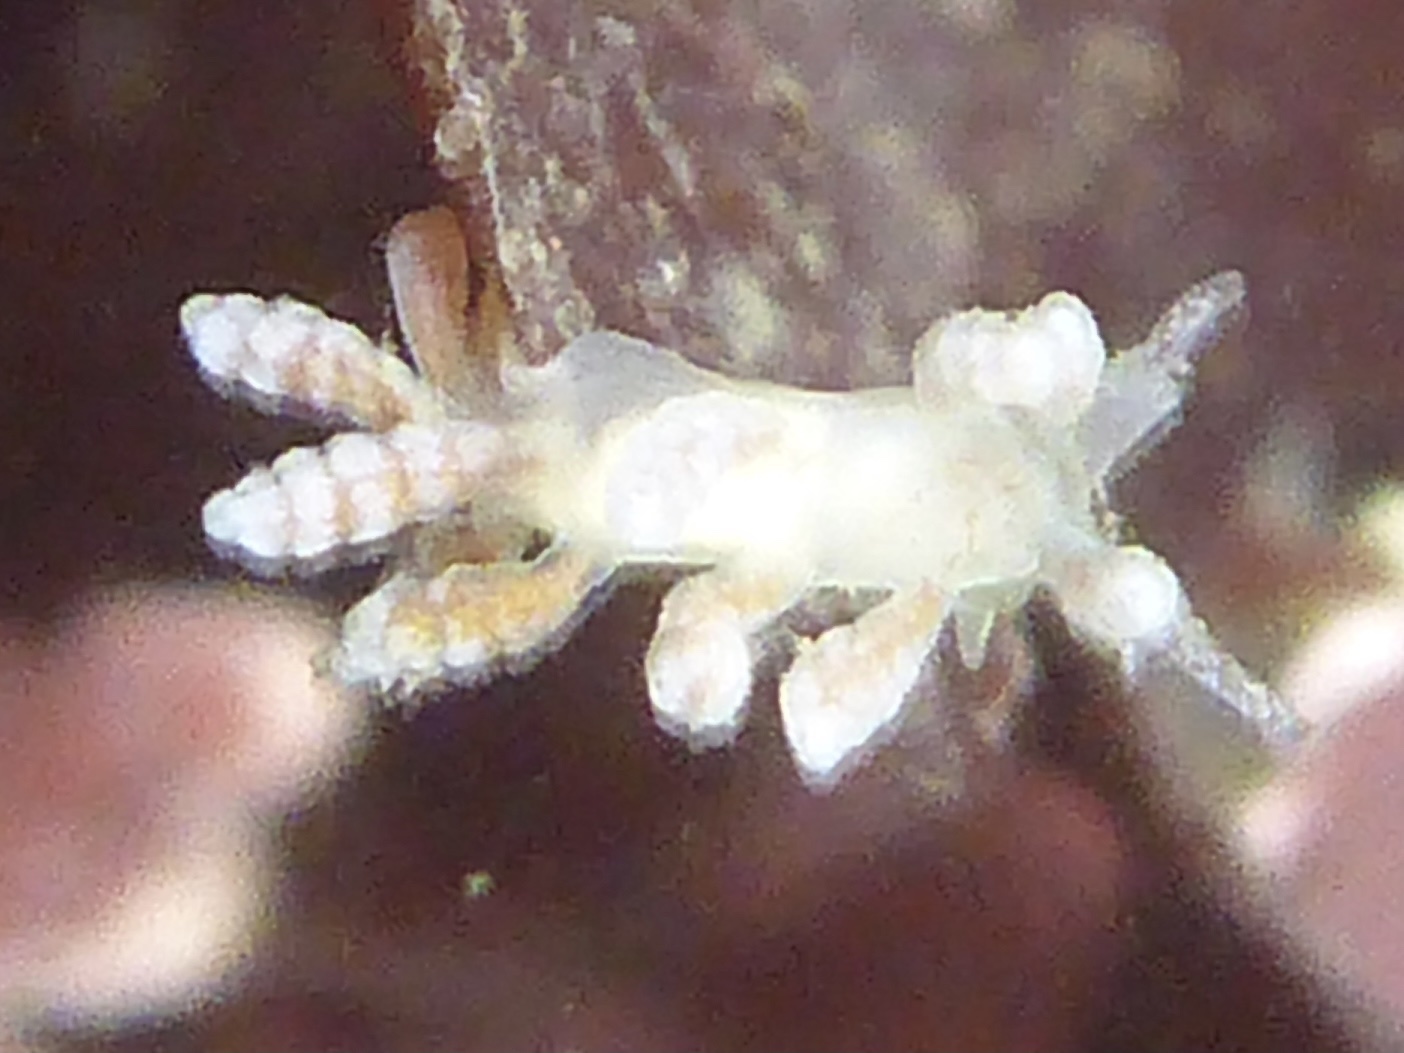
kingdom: Animalia
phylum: Mollusca
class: Gastropoda
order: Nudibranchia
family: Dotidae
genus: Doto
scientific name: Doto amyra
